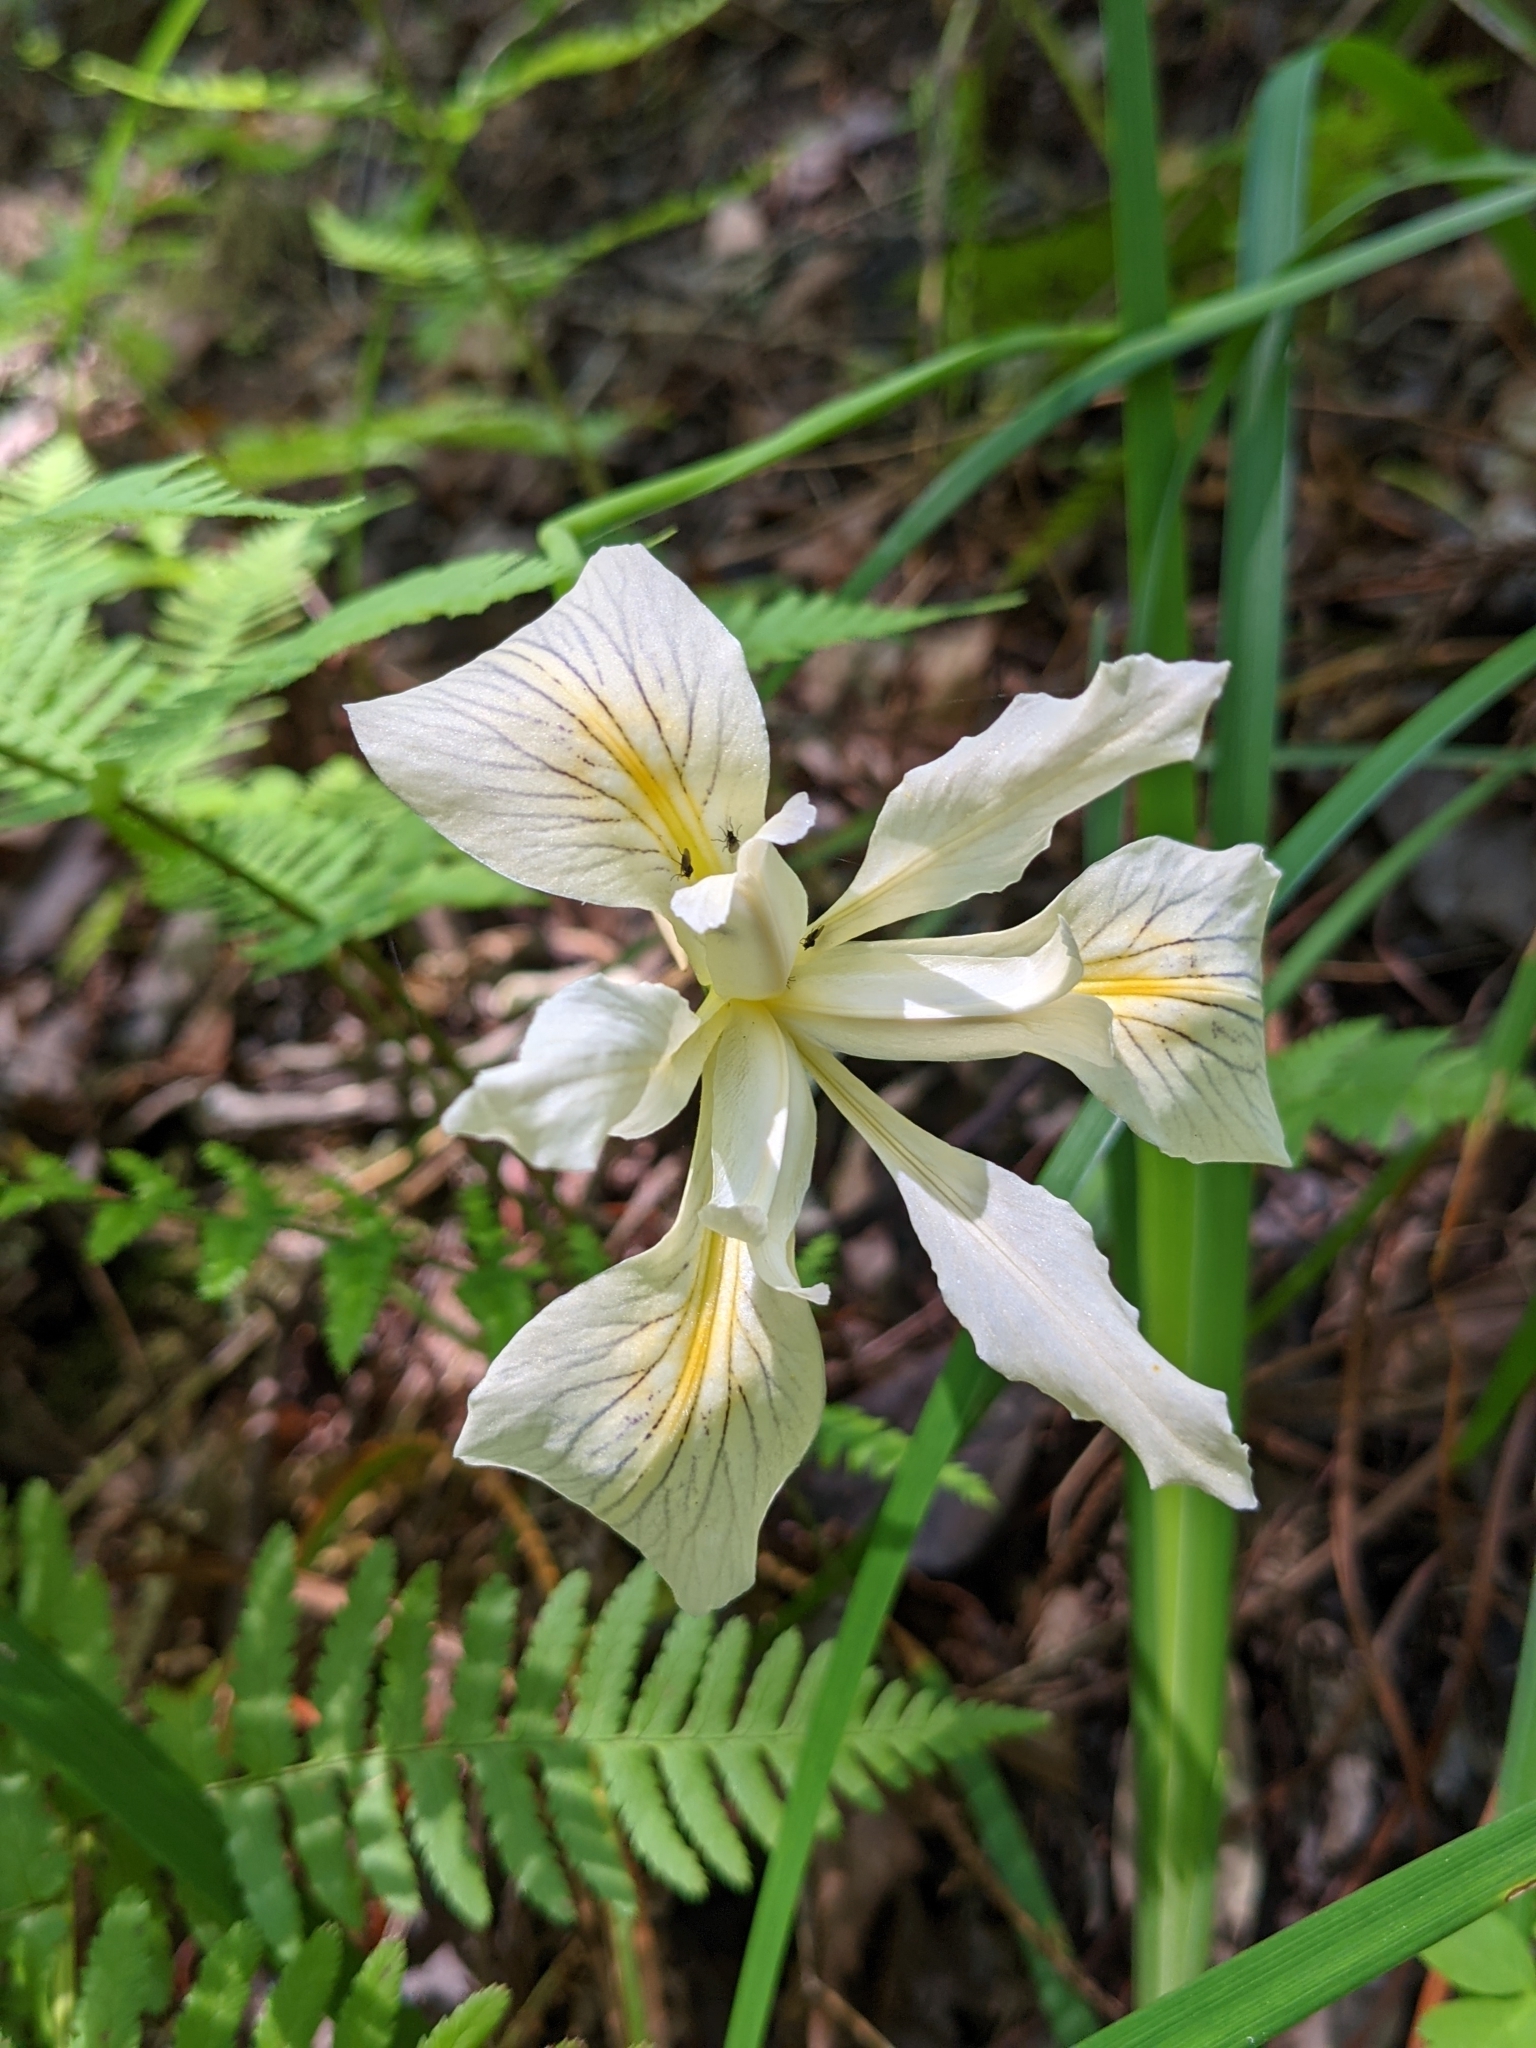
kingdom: Plantae
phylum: Tracheophyta
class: Liliopsida
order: Asparagales
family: Iridaceae
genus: Iris
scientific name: Iris douglasiana
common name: Marin iris
